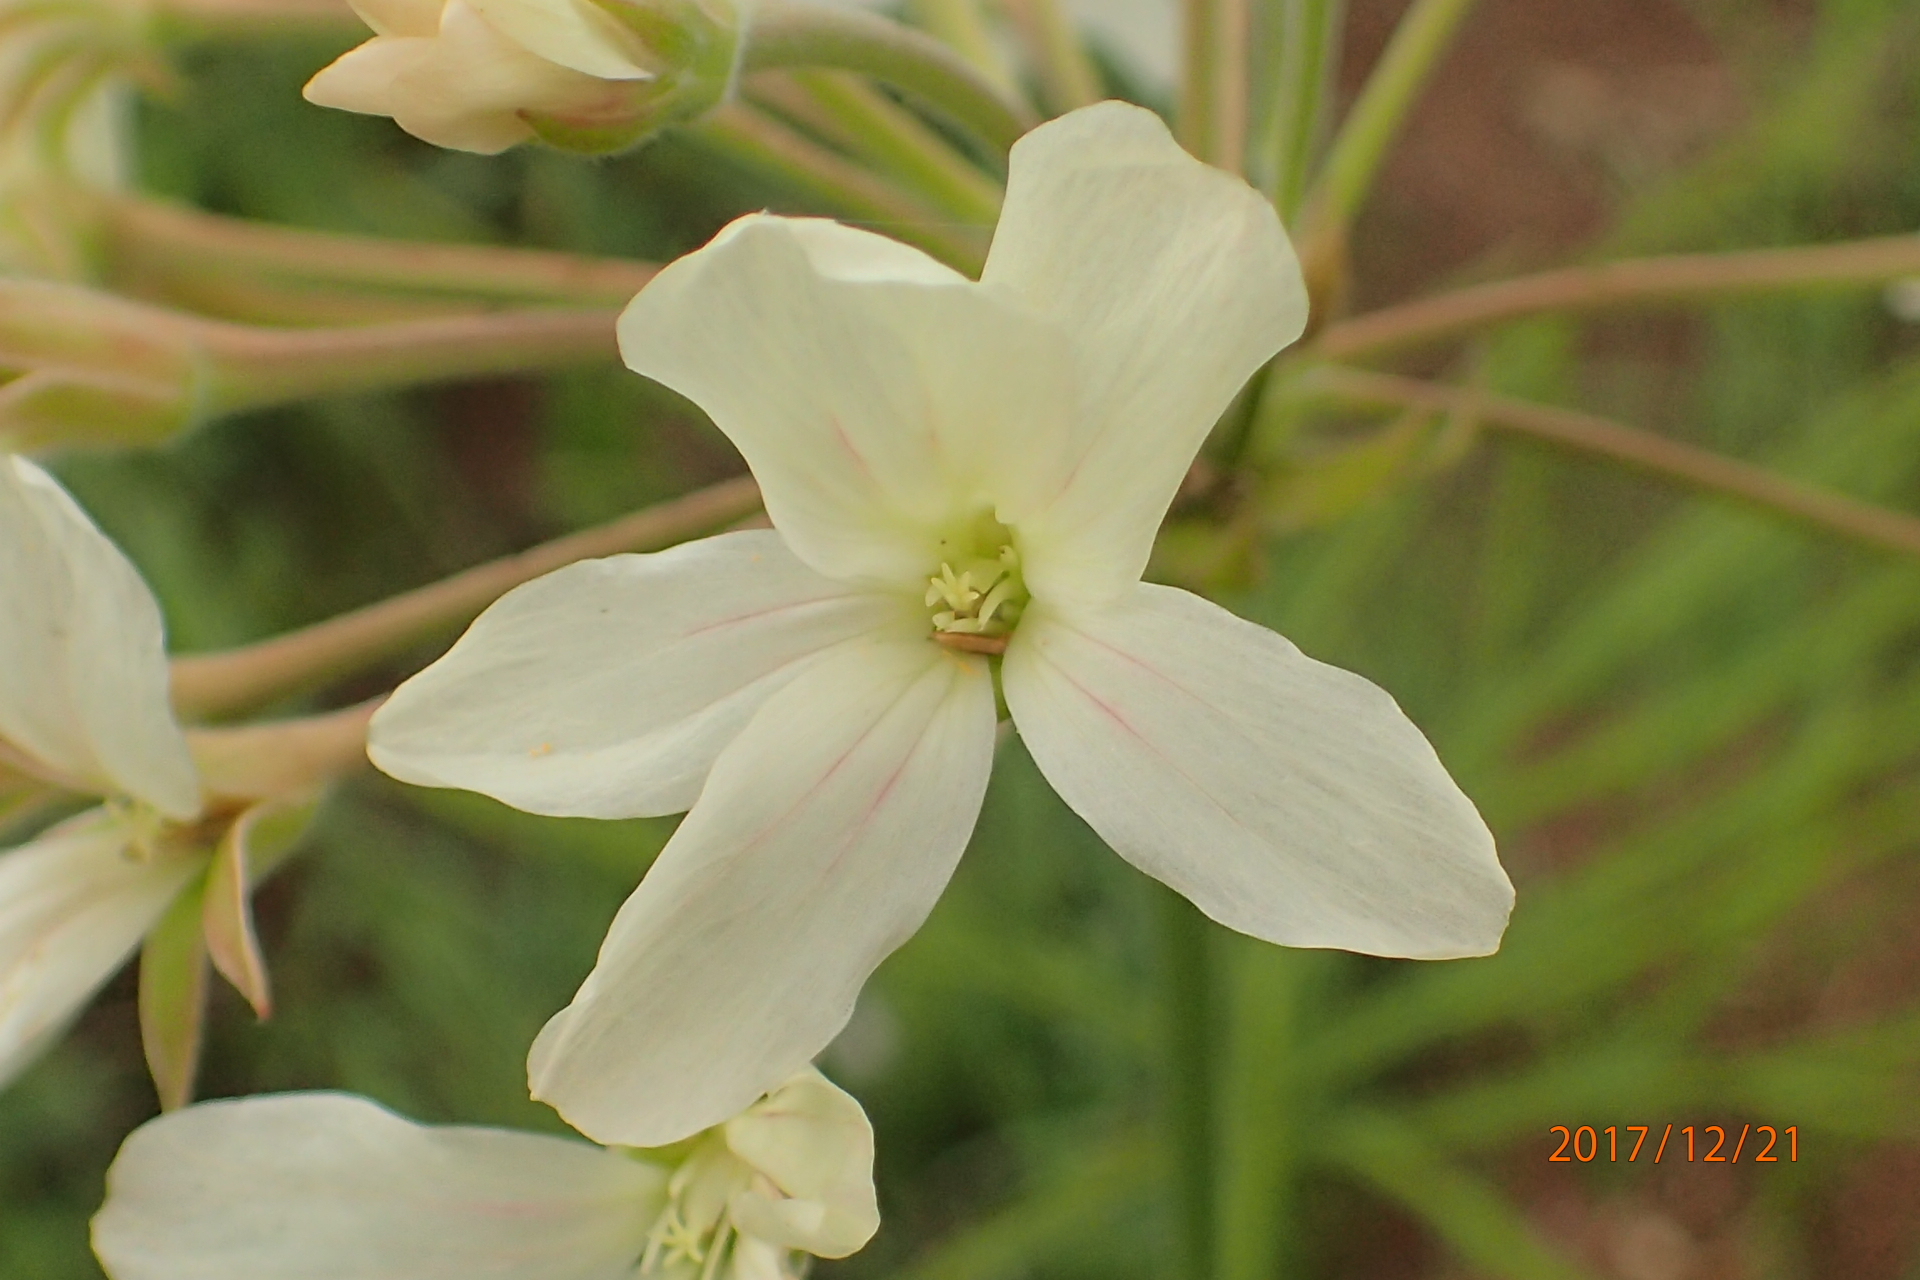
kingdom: Plantae
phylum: Tracheophyta
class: Magnoliopsida
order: Geraniales
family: Geraniaceae
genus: Pelargonium
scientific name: Pelargonium luridum
